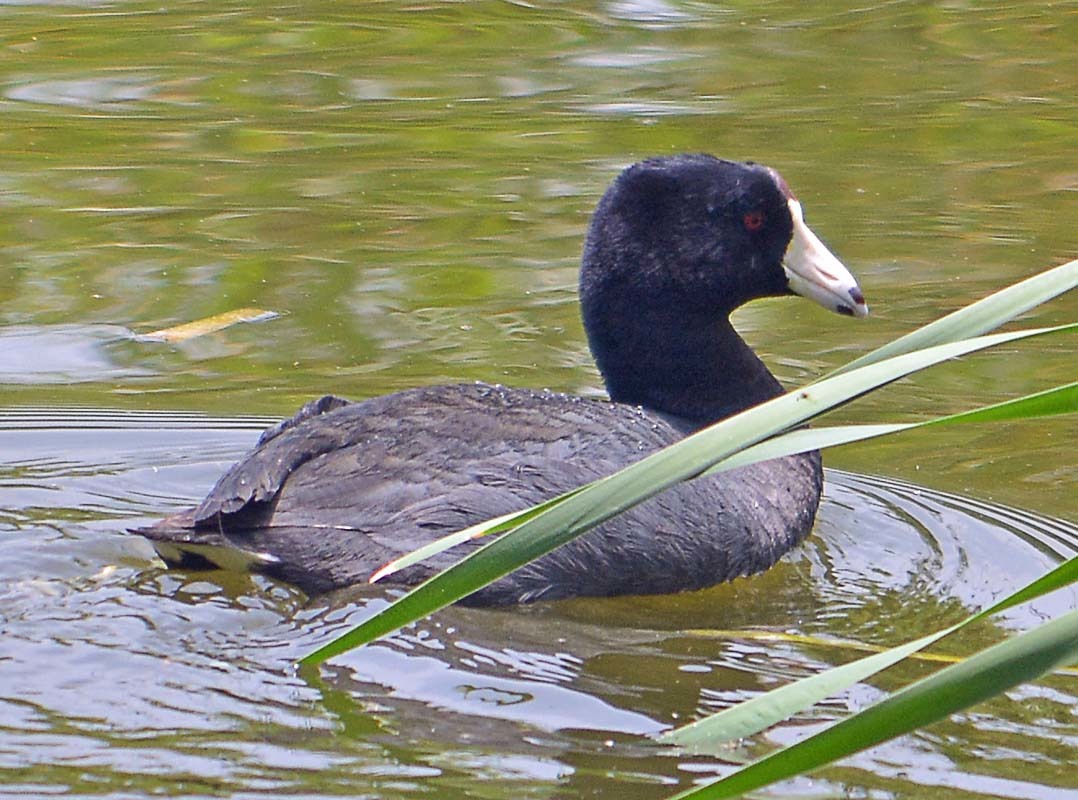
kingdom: Animalia
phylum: Chordata
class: Aves
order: Gruiformes
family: Rallidae
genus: Fulica
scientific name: Fulica americana
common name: American coot
